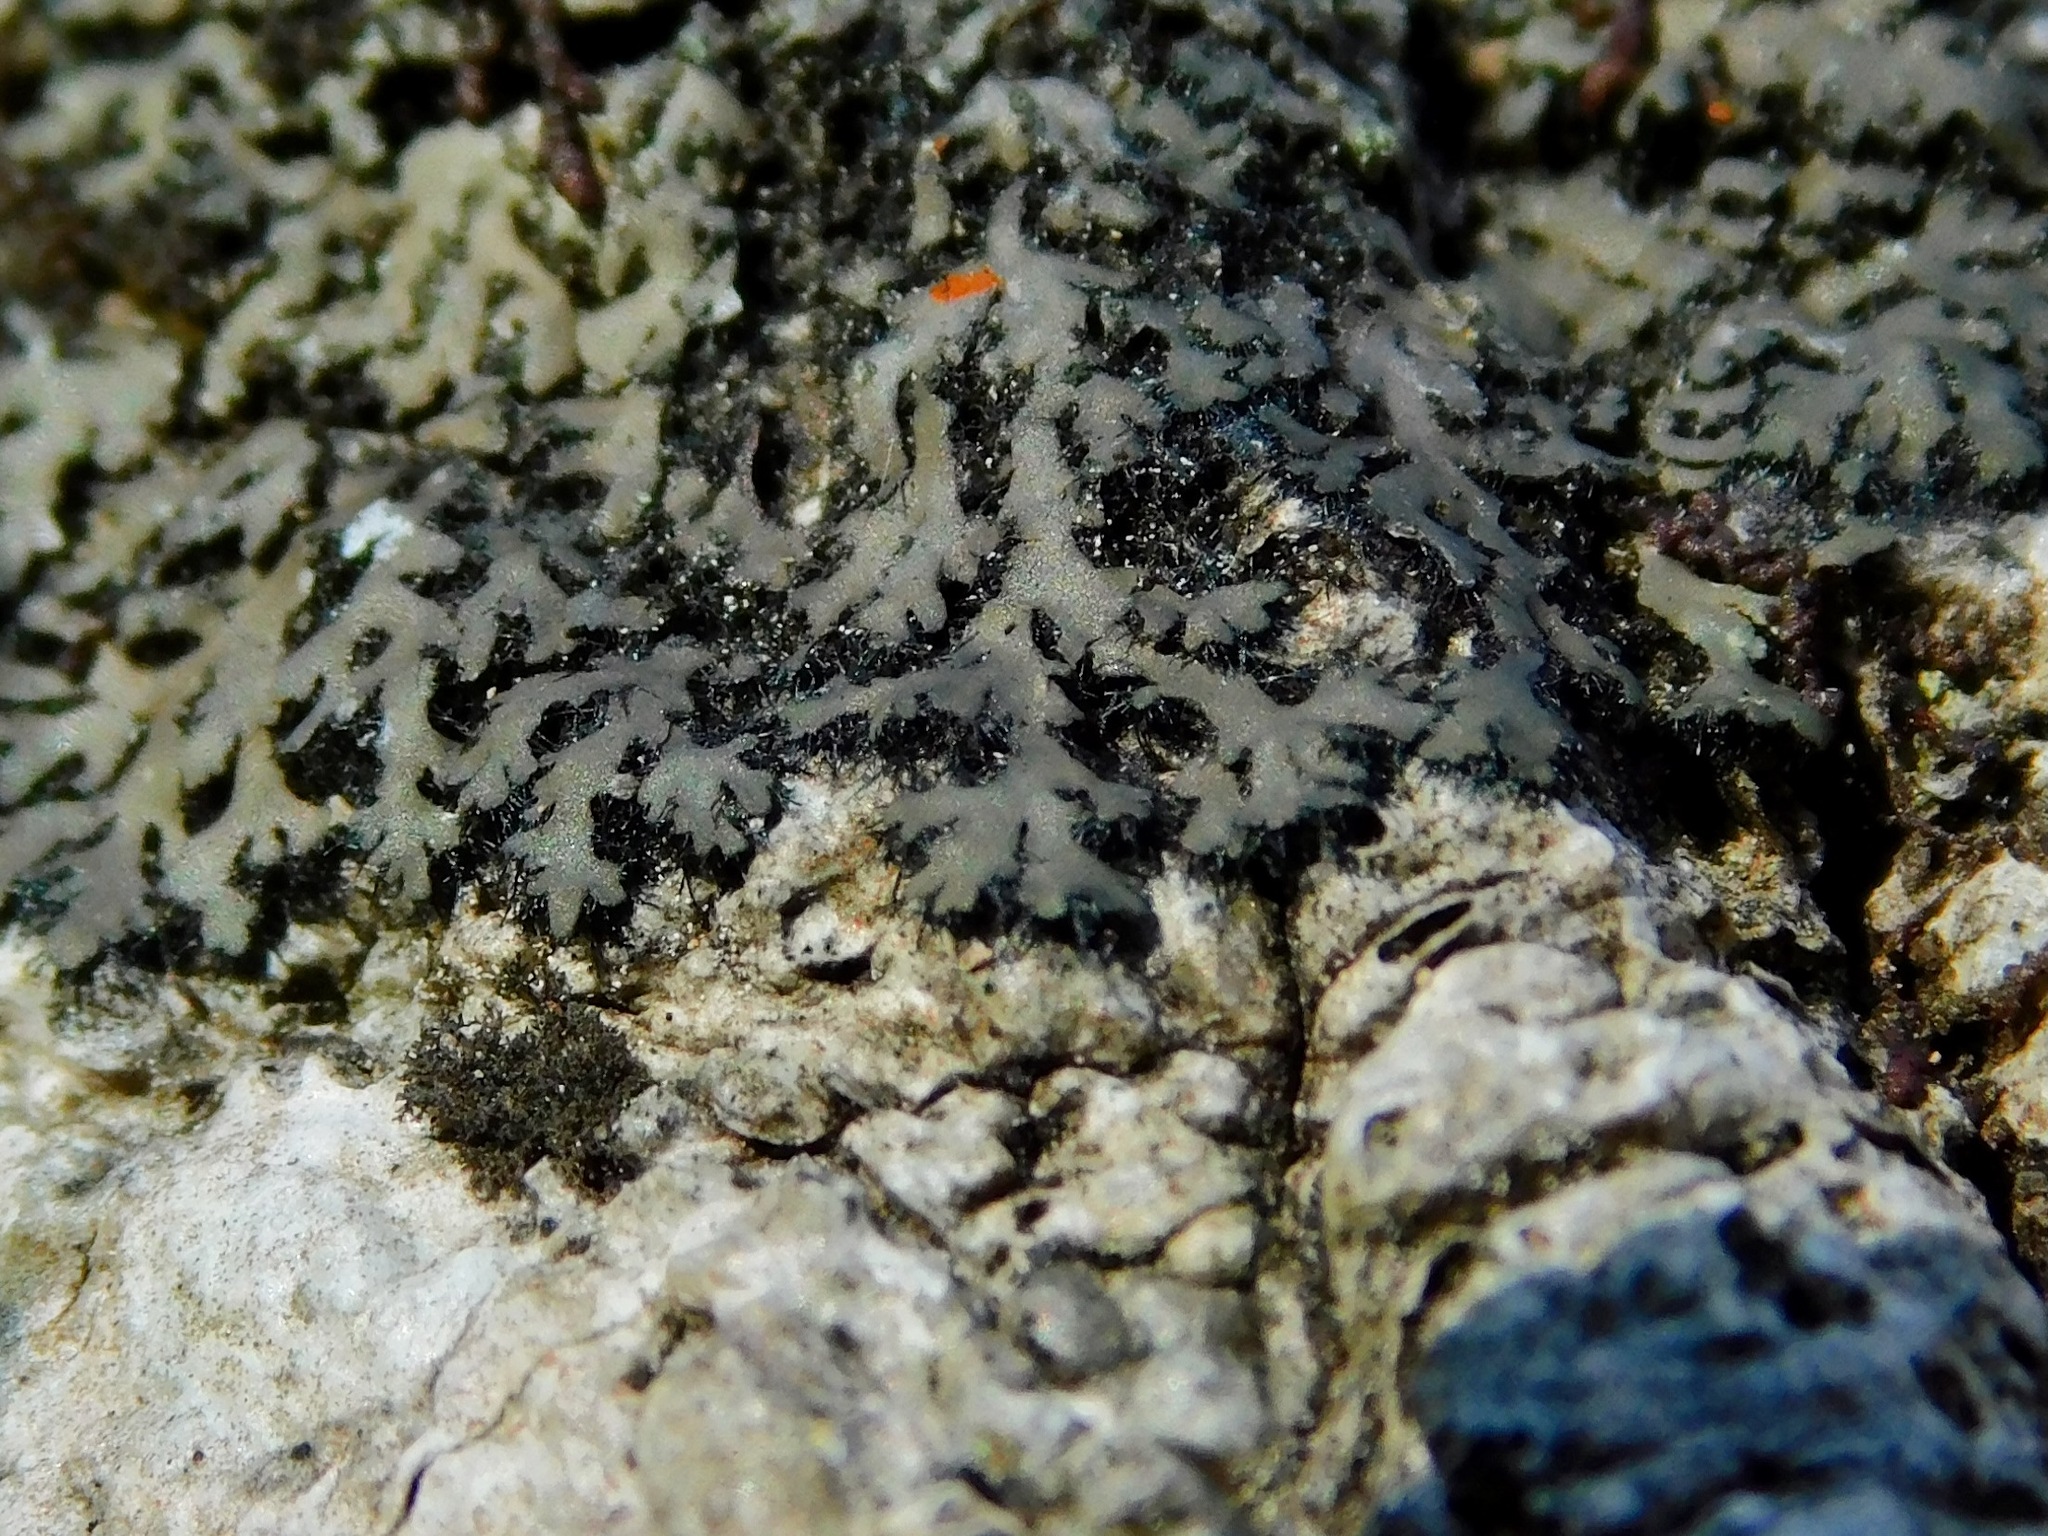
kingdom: Fungi
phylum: Ascomycota
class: Lecanoromycetes
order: Caliciales
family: Physciaceae
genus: Phaeophyscia
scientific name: Phaeophyscia rubropulchra
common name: Orange-cored shadow lichen
